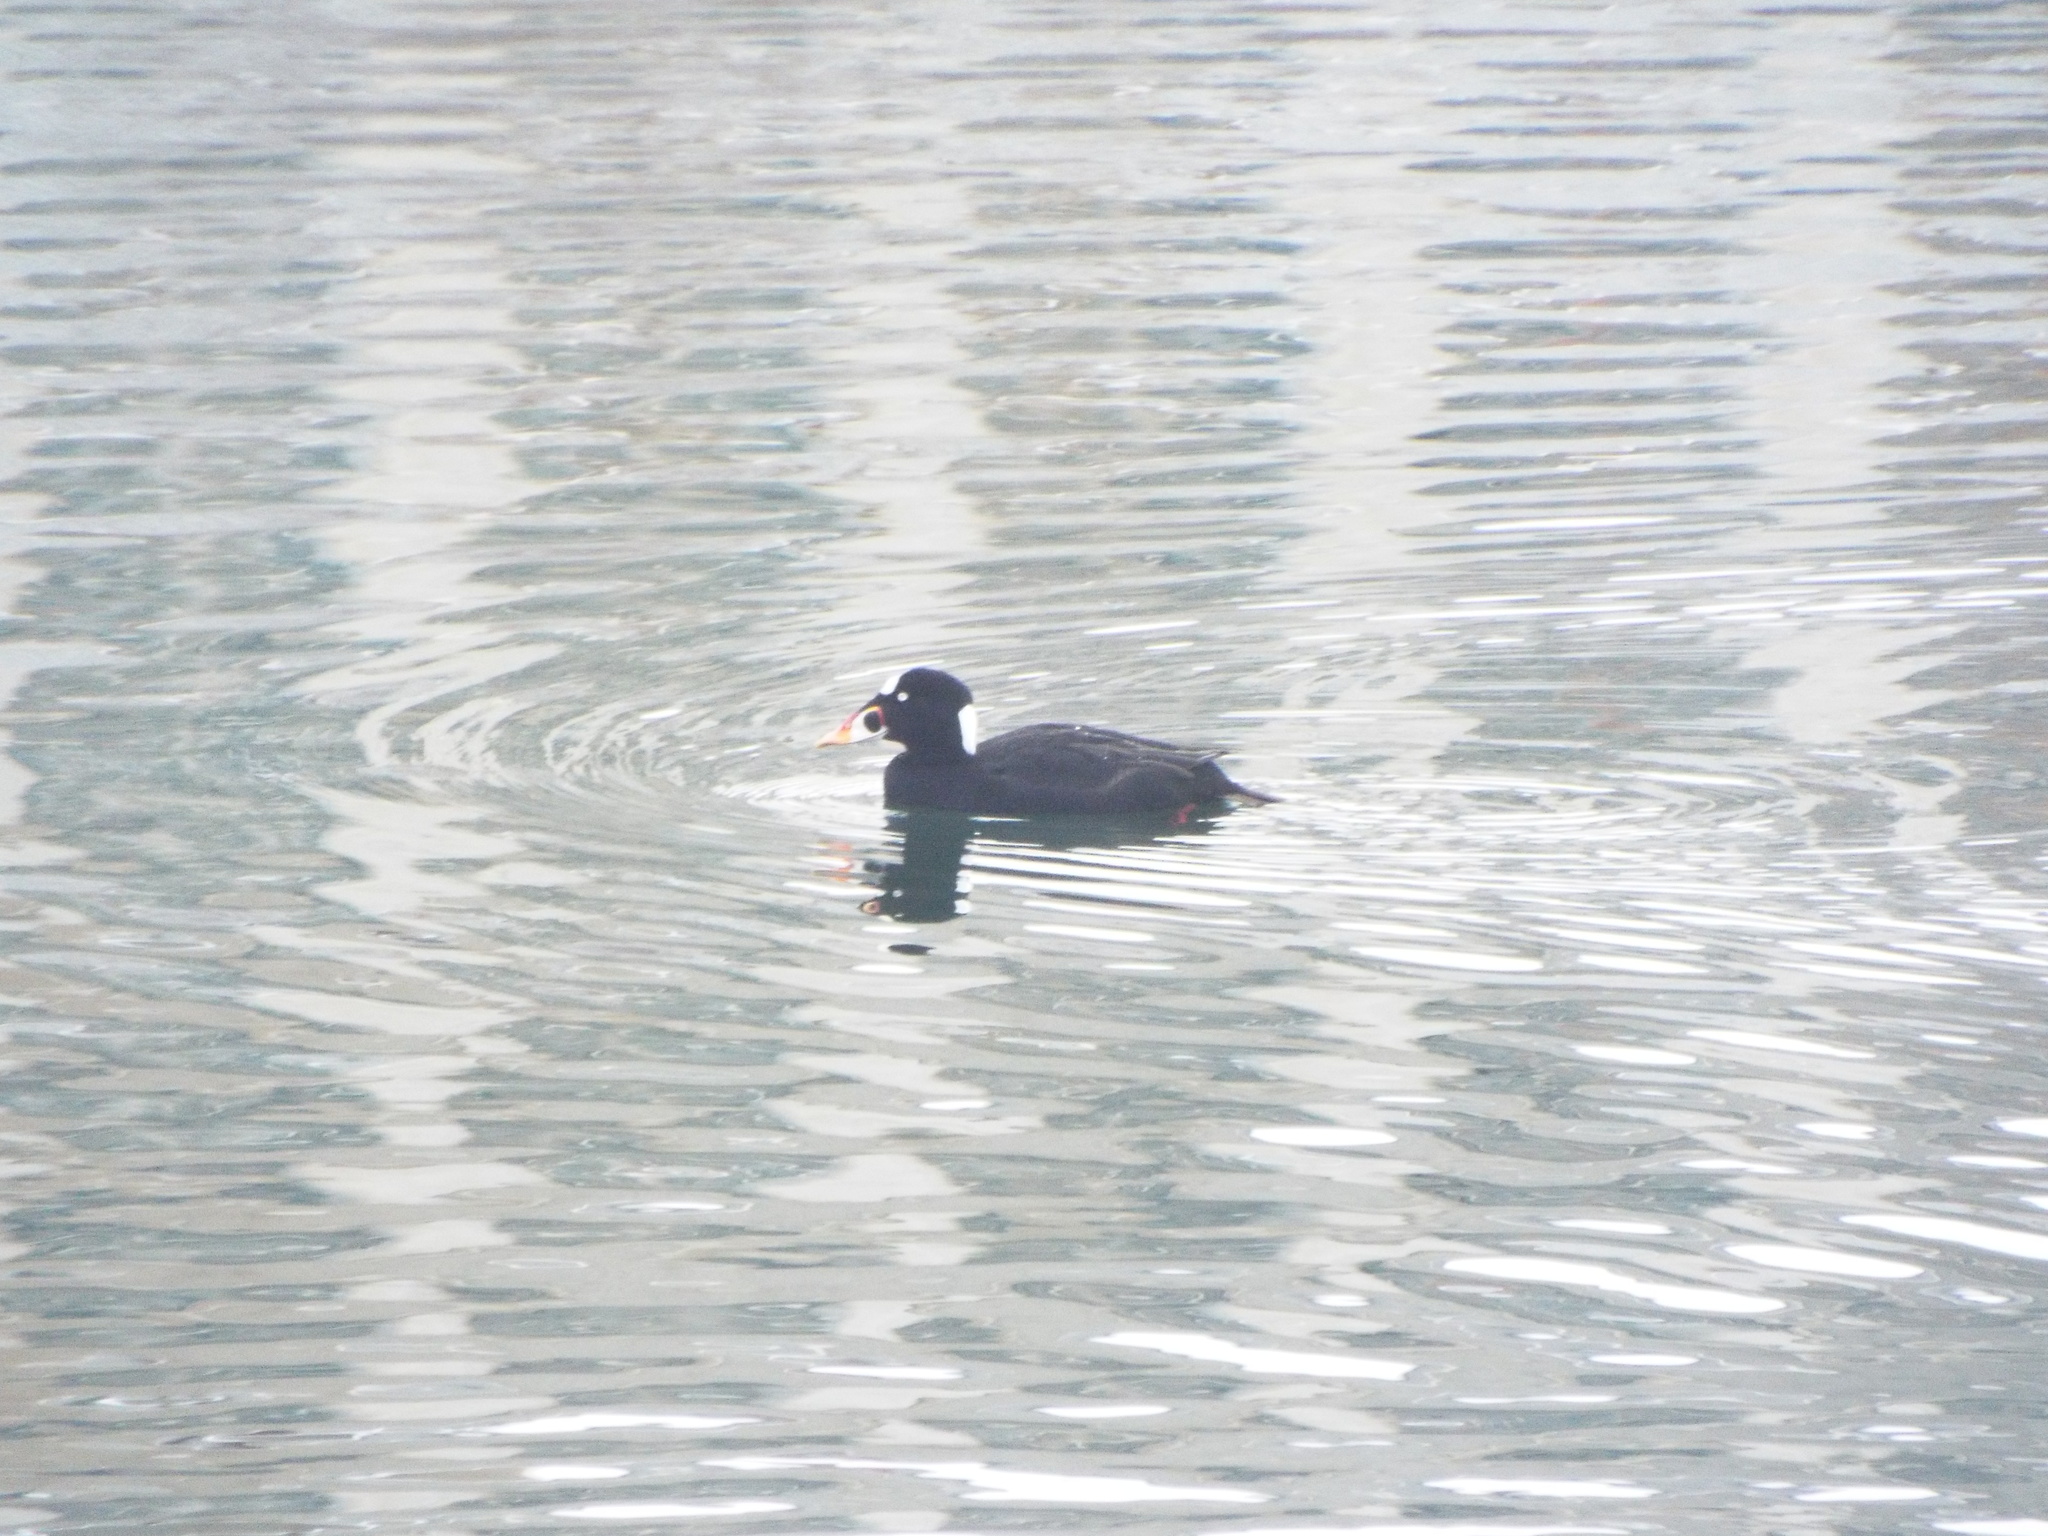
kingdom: Animalia
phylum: Chordata
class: Aves
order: Anseriformes
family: Anatidae
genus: Melanitta
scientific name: Melanitta perspicillata
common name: Surf scoter
